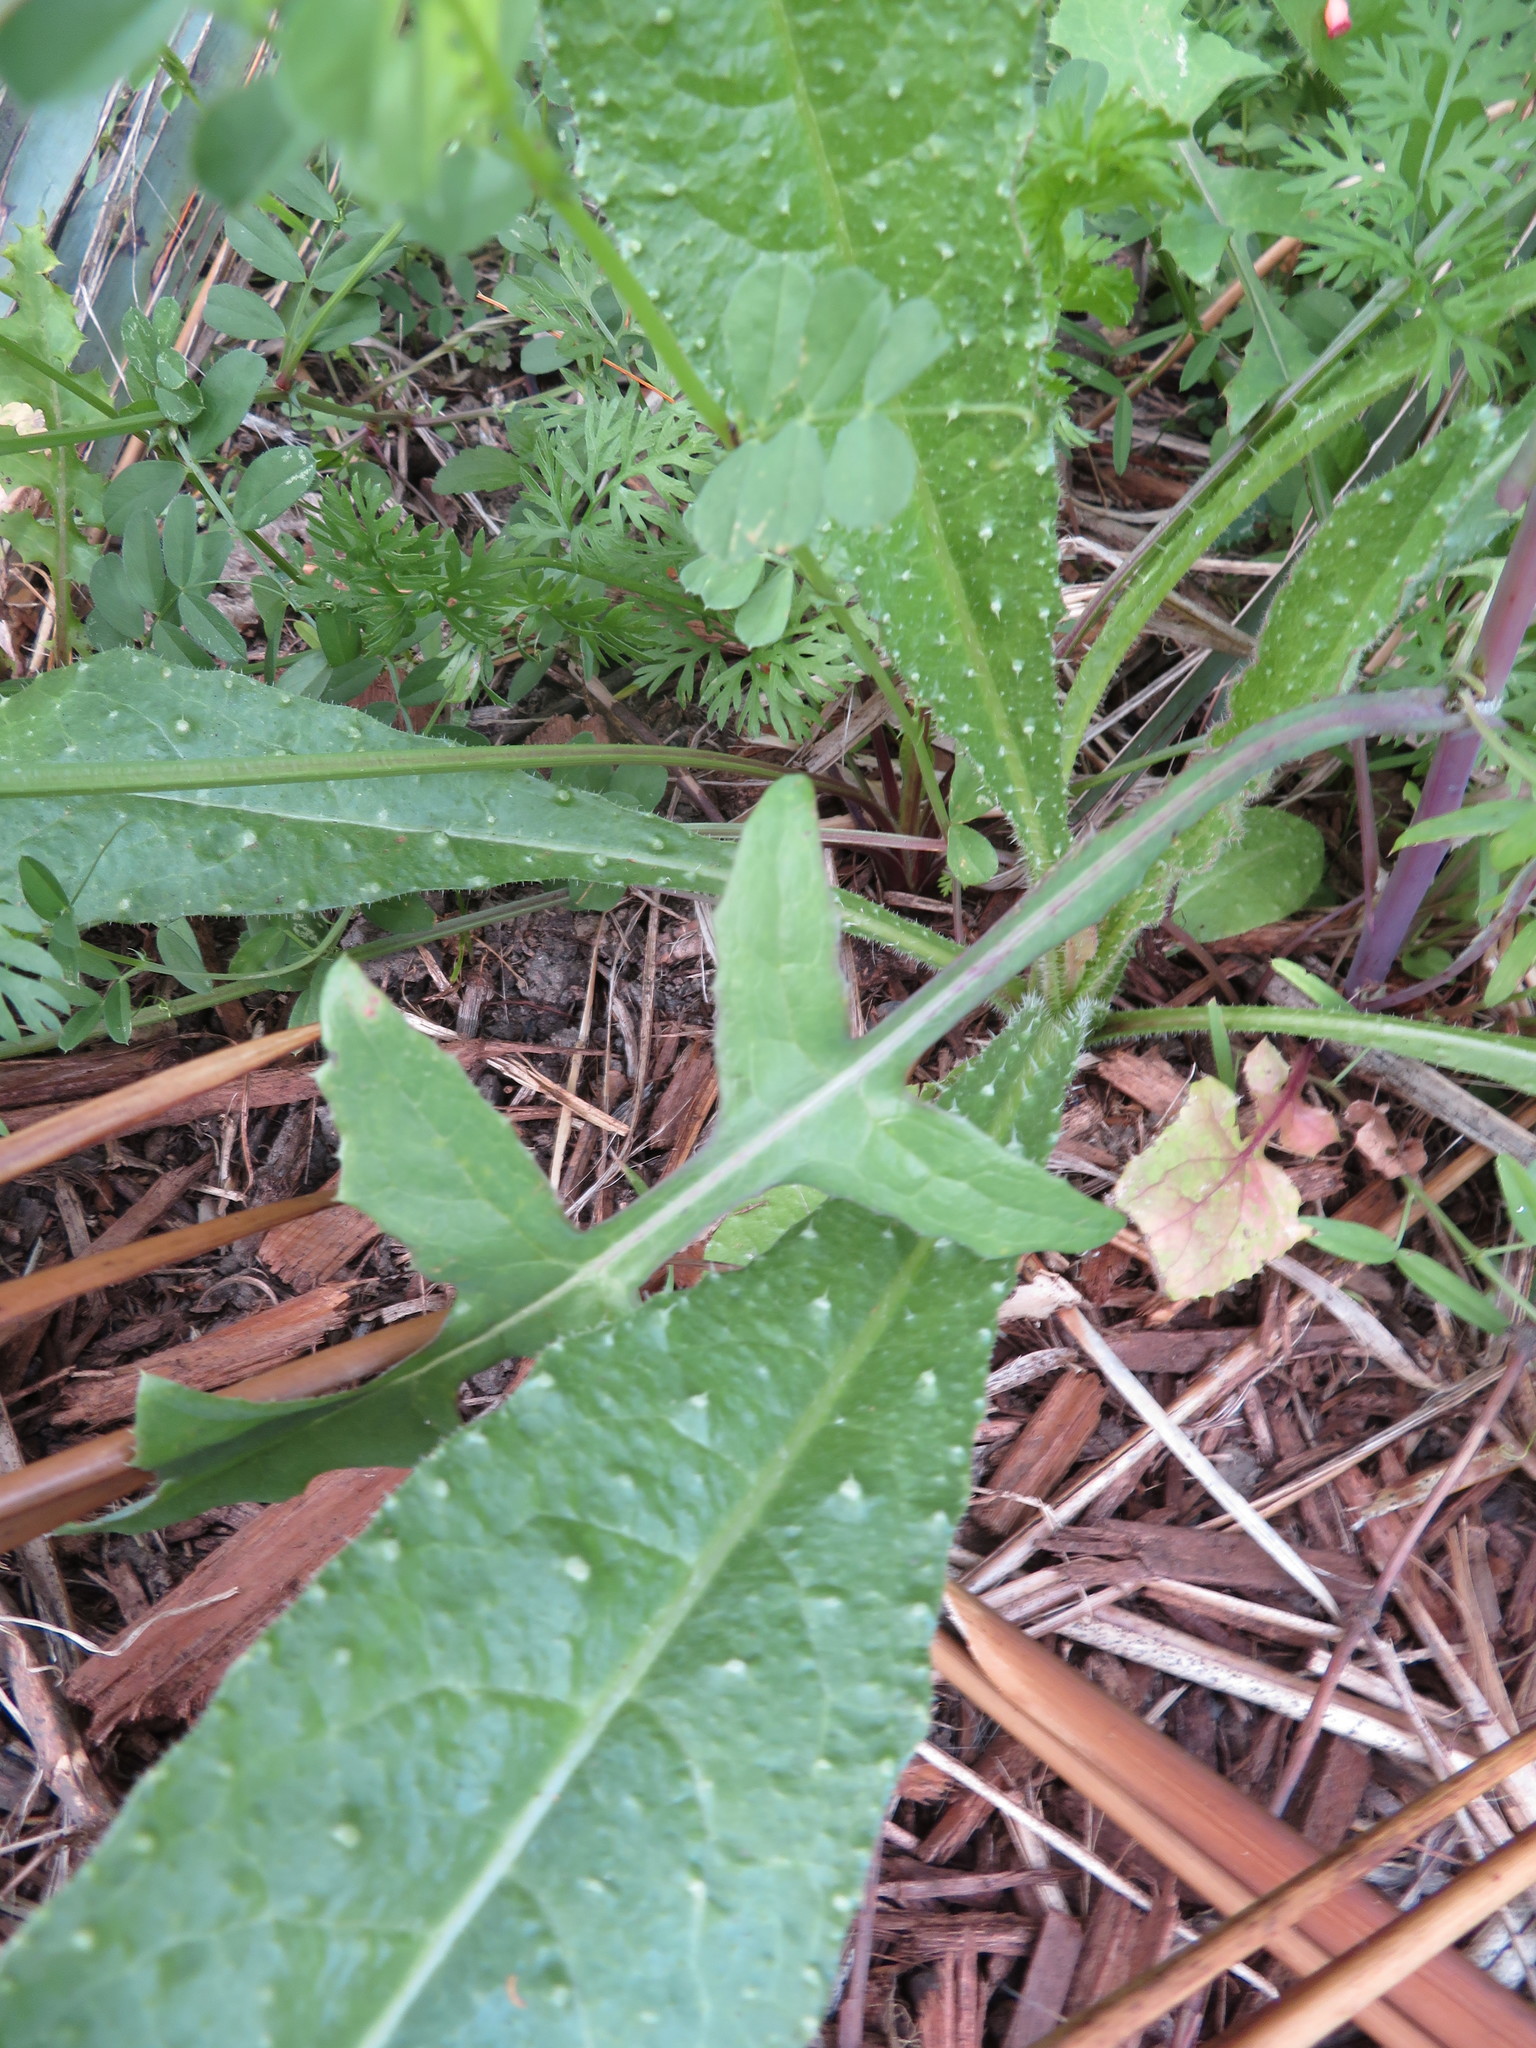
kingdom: Plantae
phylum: Tracheophyta
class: Magnoliopsida
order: Asterales
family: Asteraceae
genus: Helminthotheca
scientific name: Helminthotheca echioides
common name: Ox-tongue
